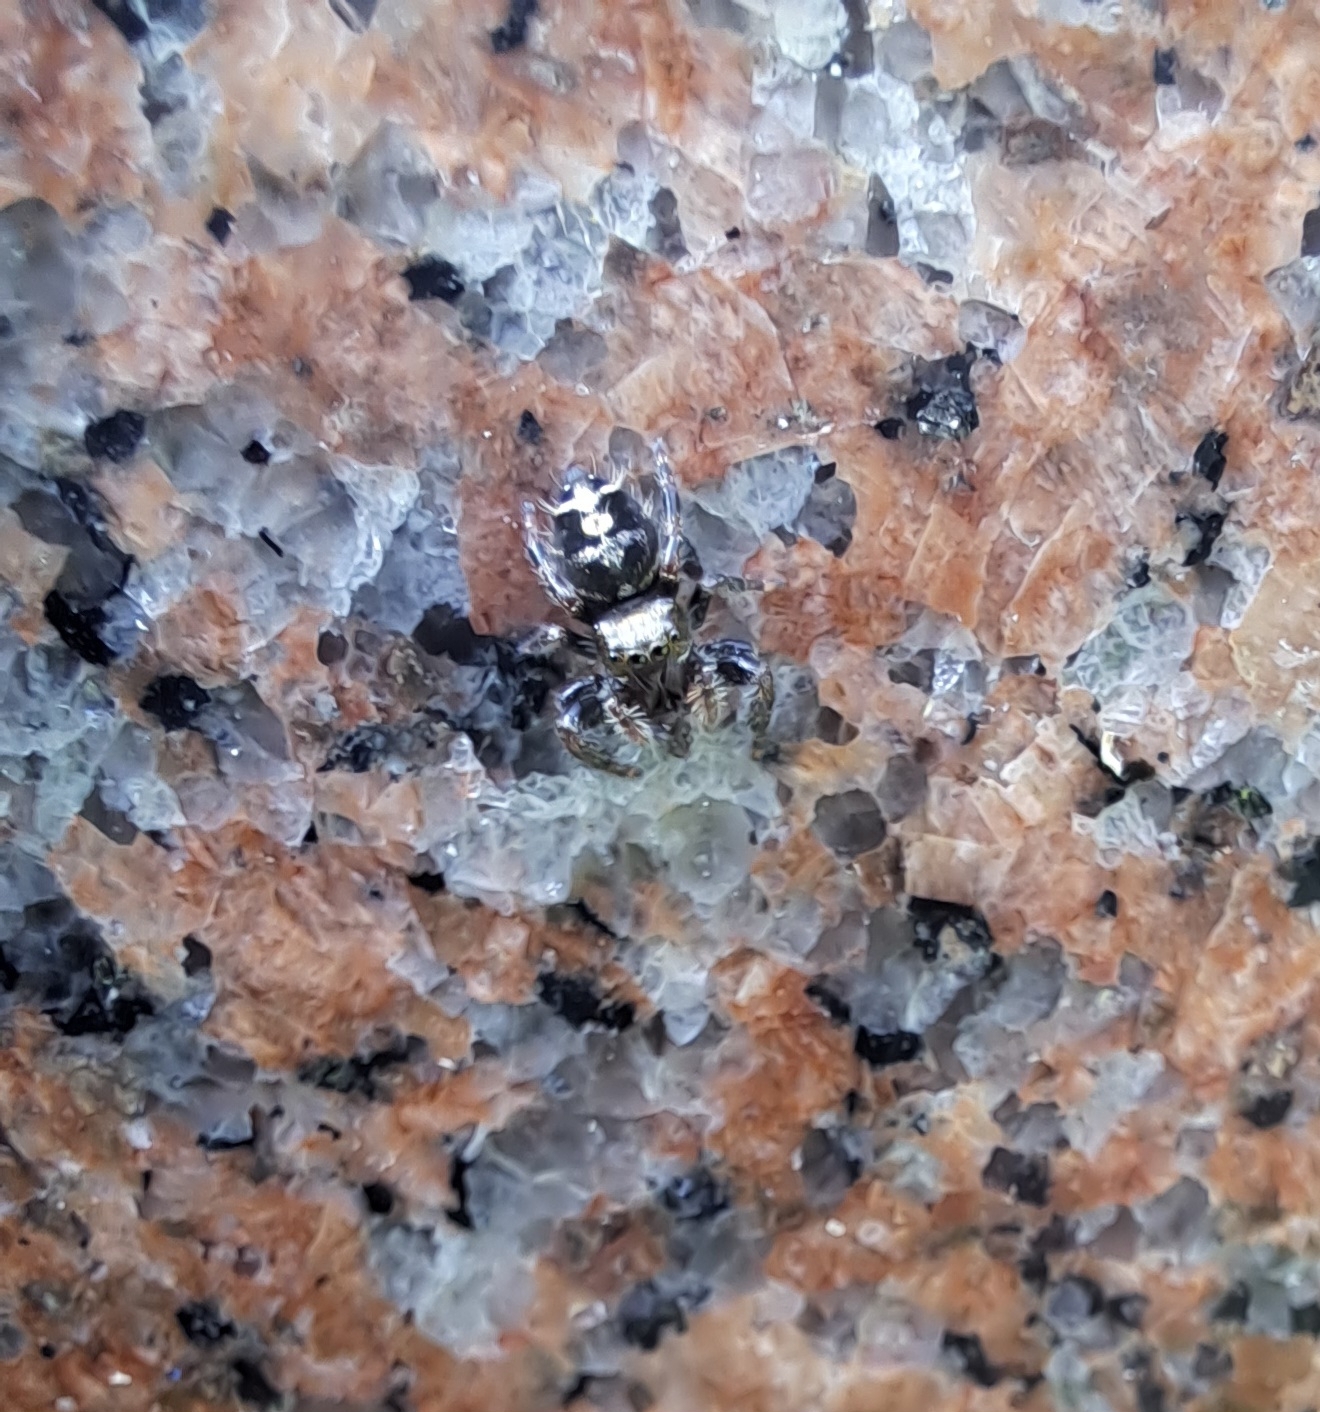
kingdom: Animalia
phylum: Arthropoda
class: Arachnida
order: Araneae
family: Salticidae
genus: Phidippus
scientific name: Phidippus audax
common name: Bold jumper
